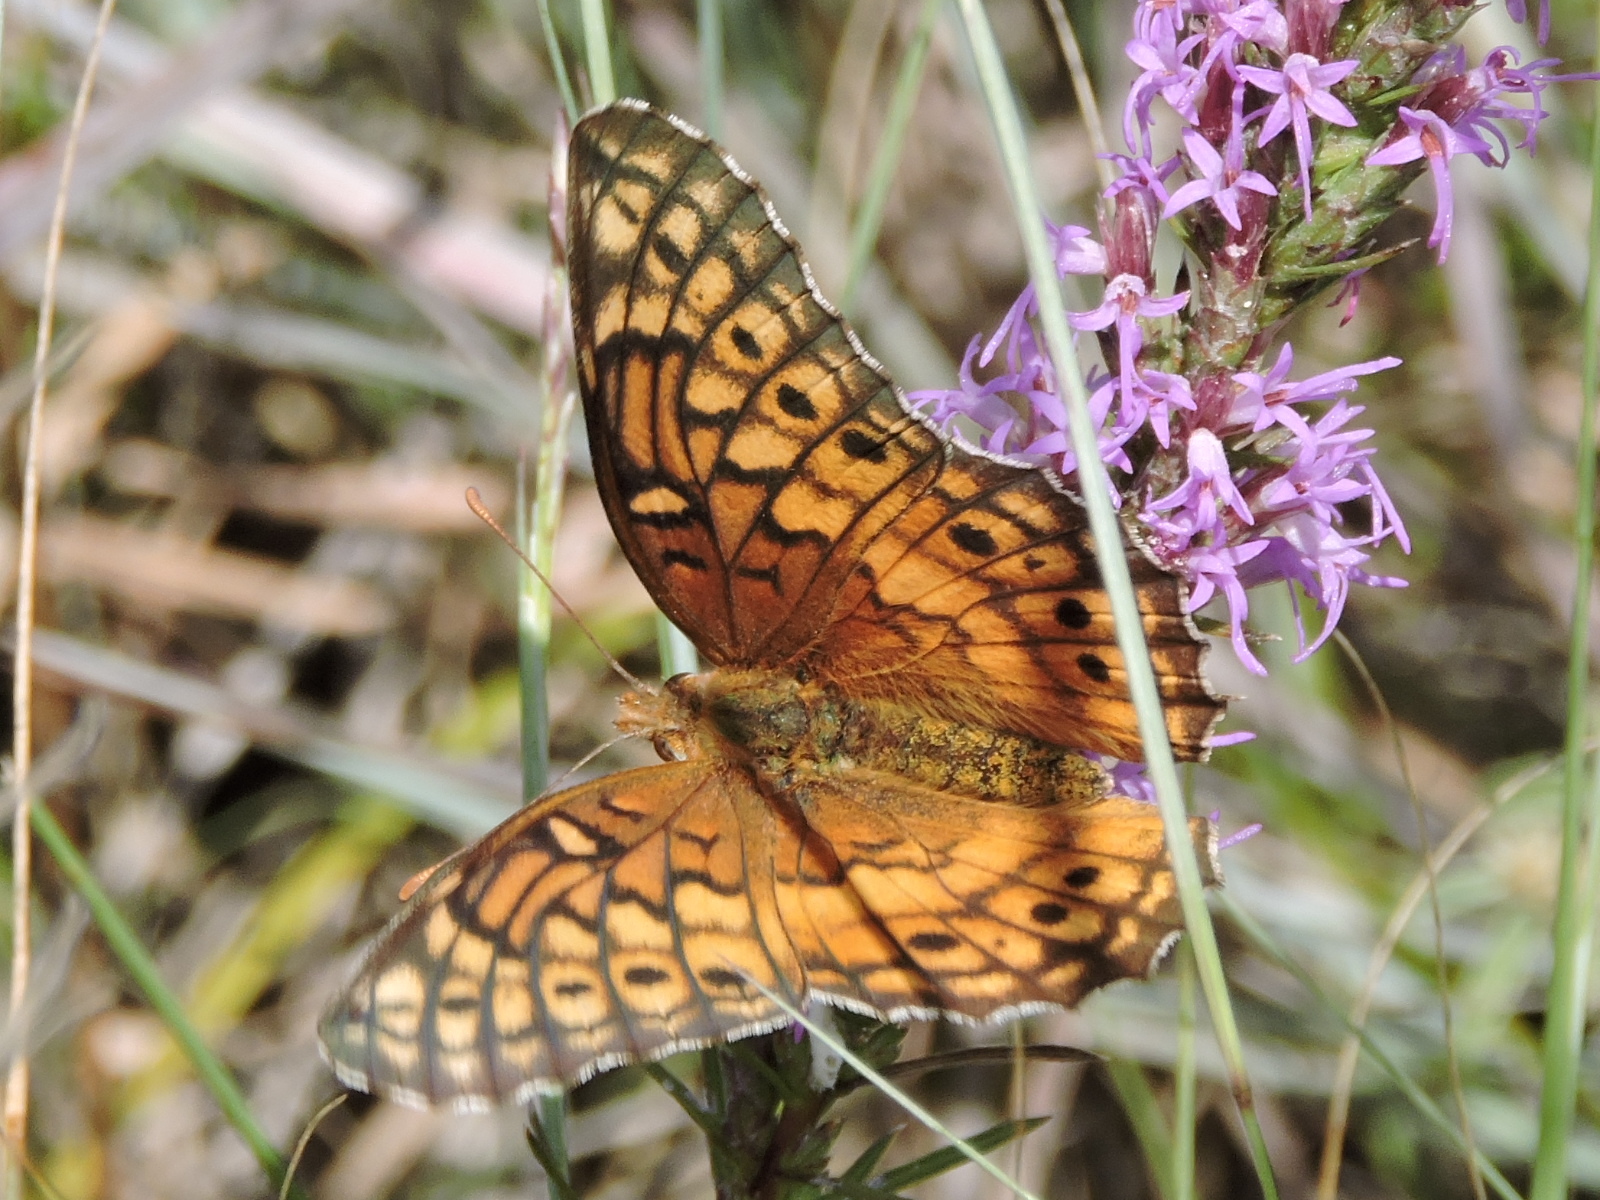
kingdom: Animalia
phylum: Arthropoda
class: Insecta
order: Lepidoptera
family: Nymphalidae
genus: Euptoieta
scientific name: Euptoieta claudia
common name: Variegated fritillary
